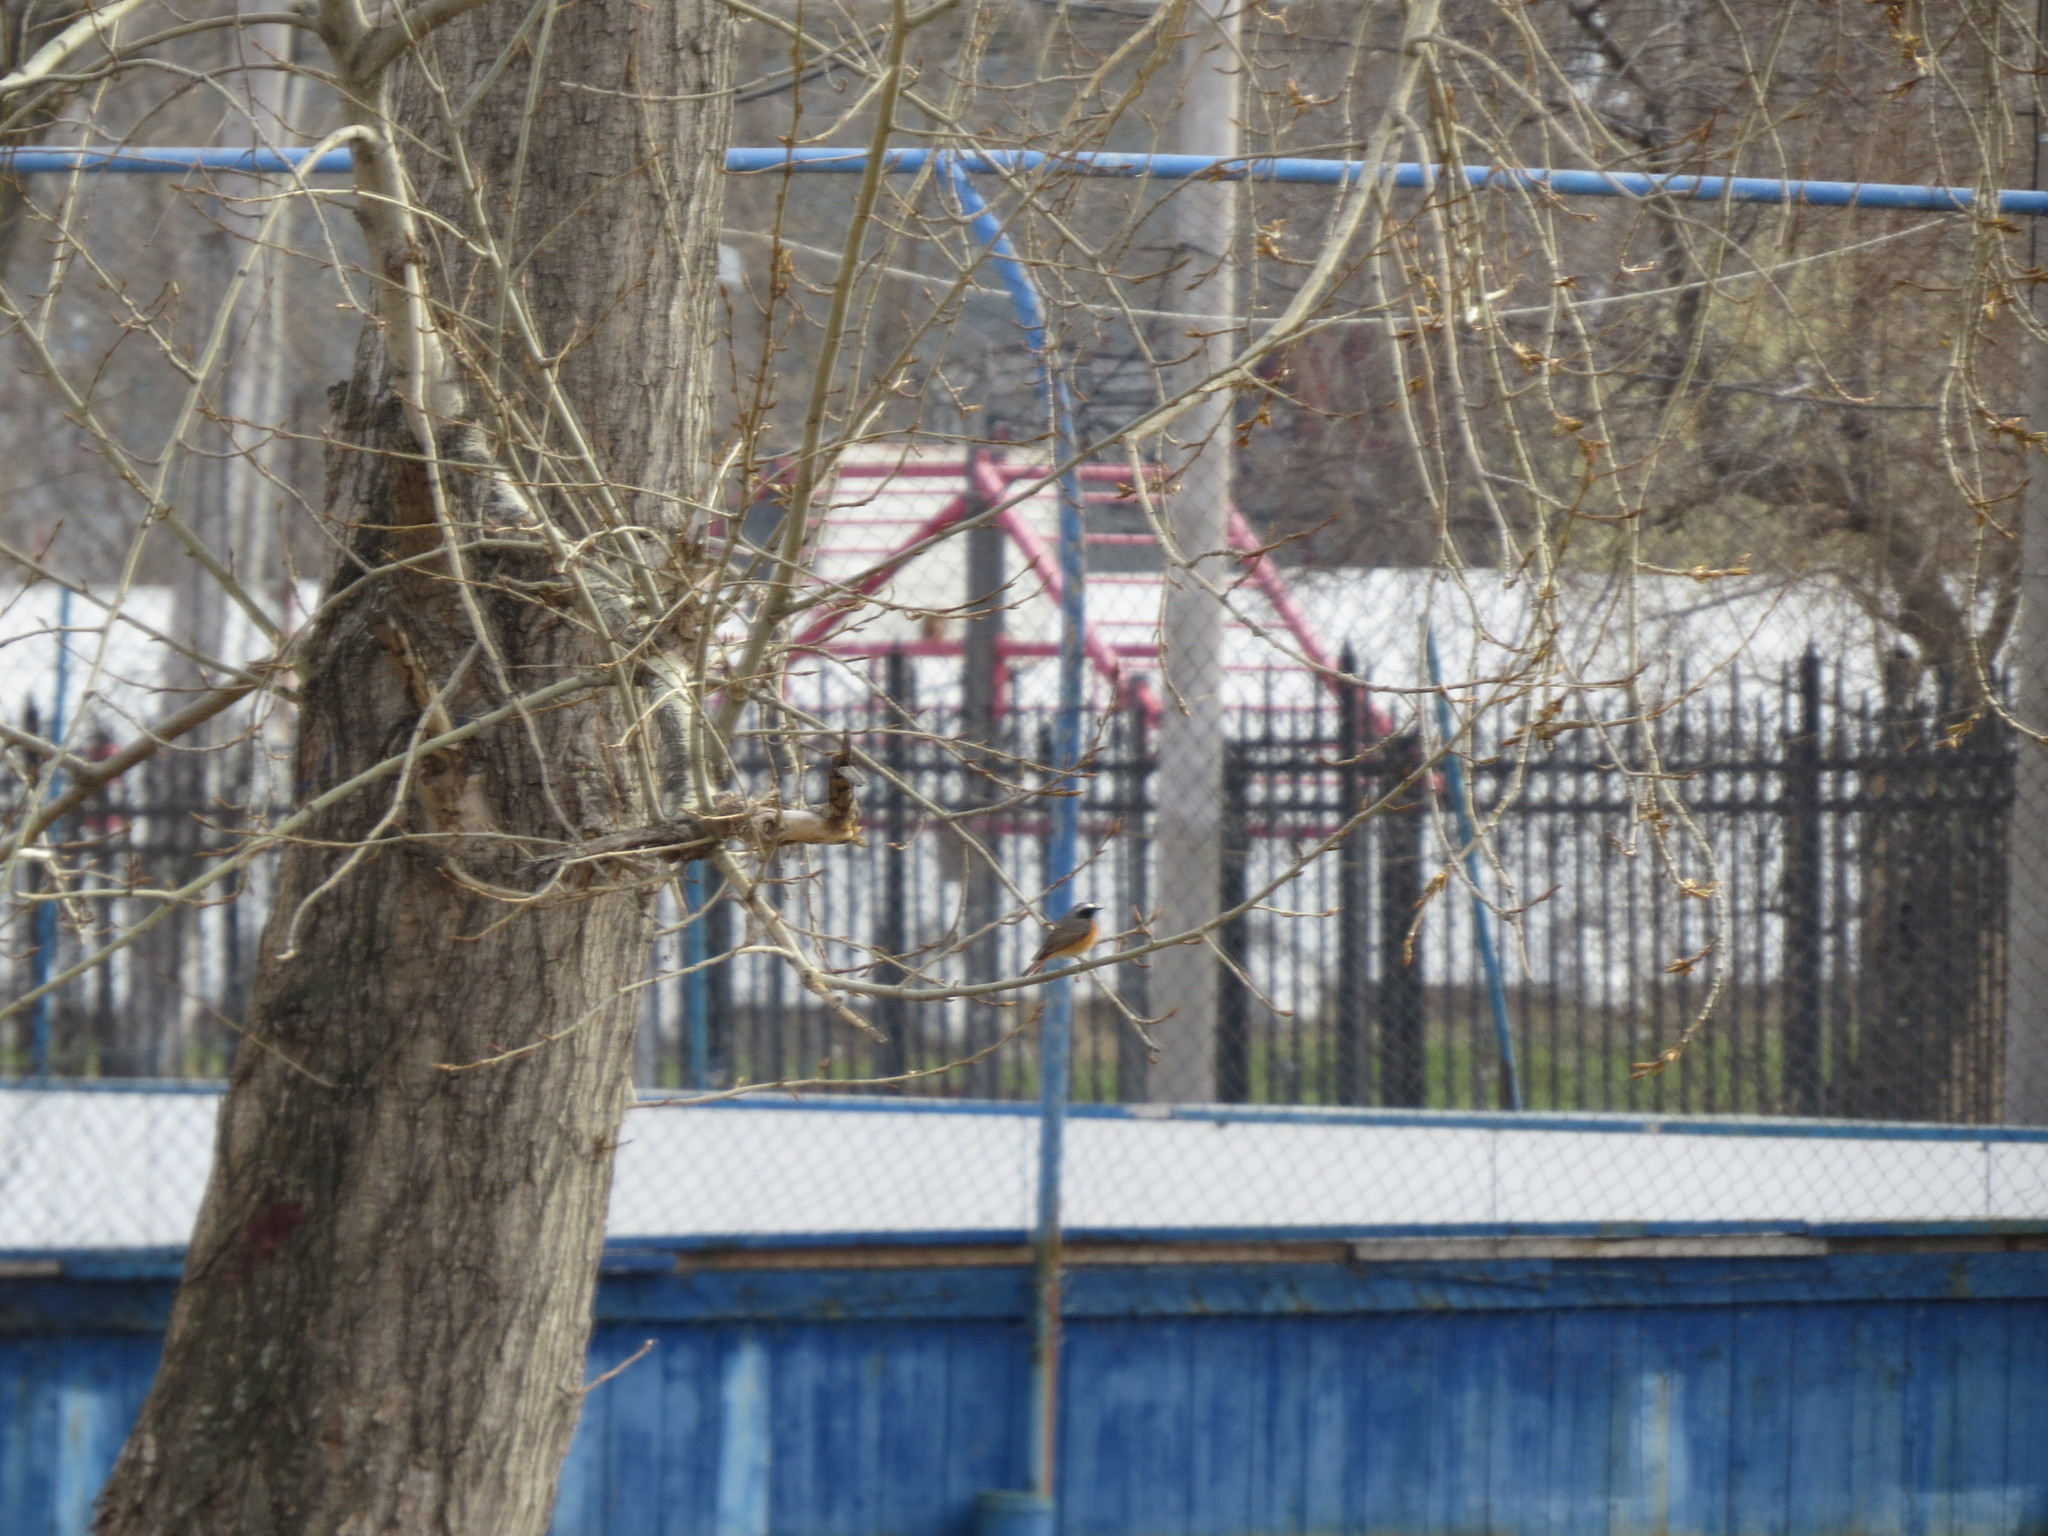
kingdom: Animalia
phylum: Chordata
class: Aves
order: Passeriformes
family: Muscicapidae
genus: Phoenicurus
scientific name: Phoenicurus phoenicurus
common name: Common redstart
